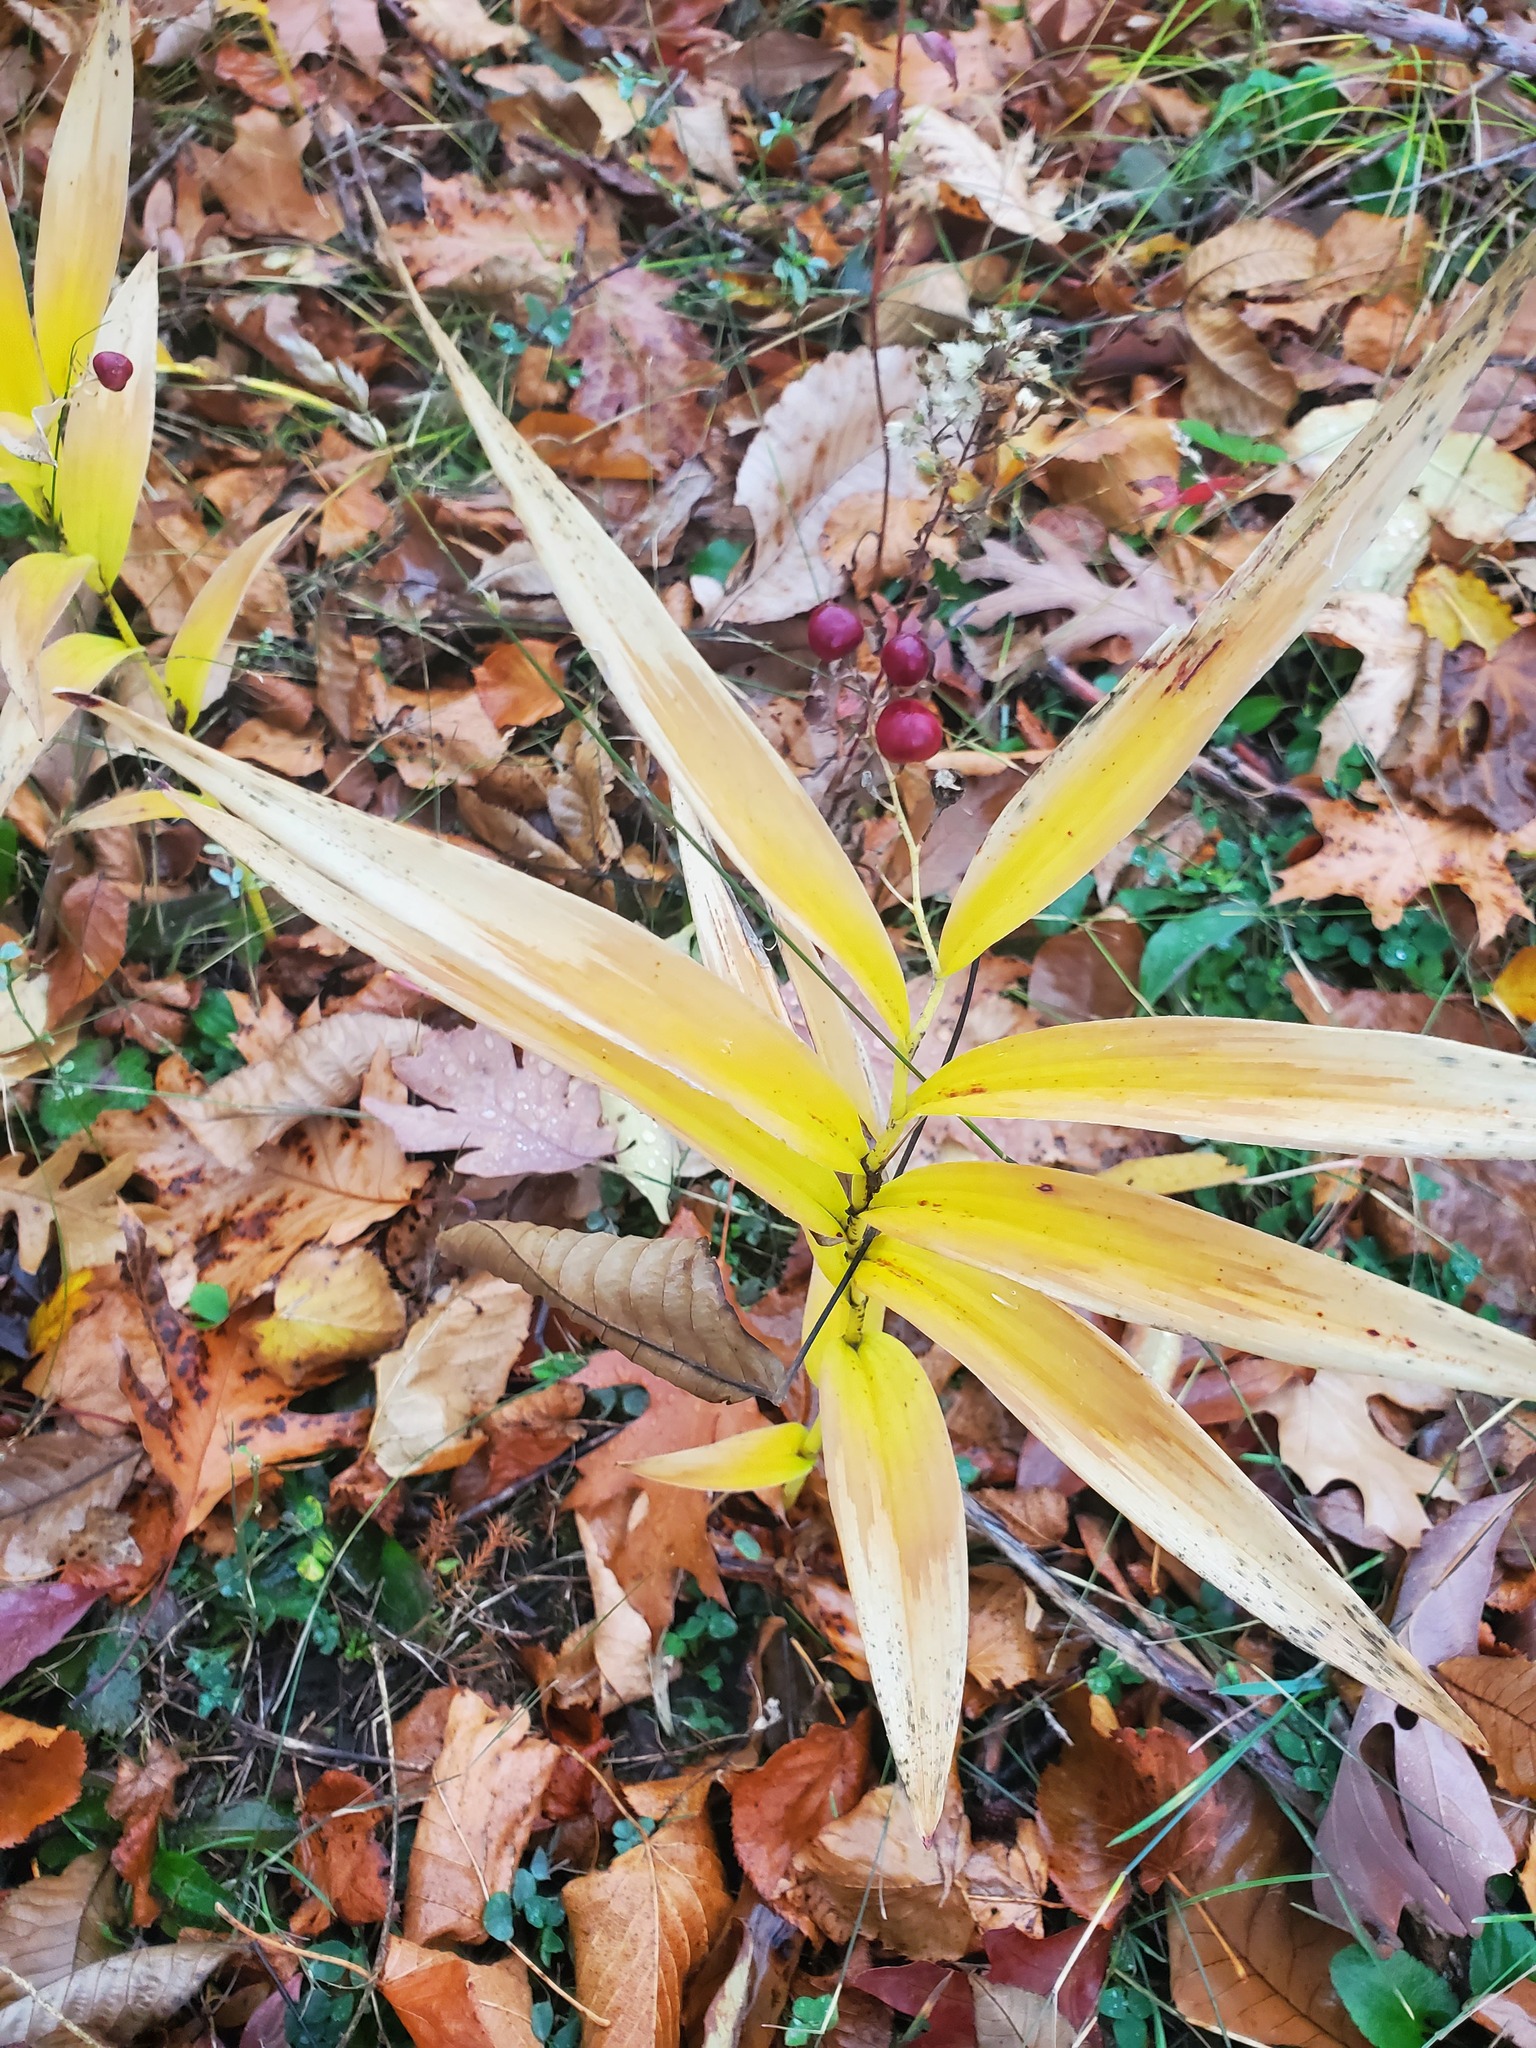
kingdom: Plantae
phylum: Tracheophyta
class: Liliopsida
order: Asparagales
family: Asparagaceae
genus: Maianthemum
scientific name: Maianthemum stellatum
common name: Little false solomon's seal
